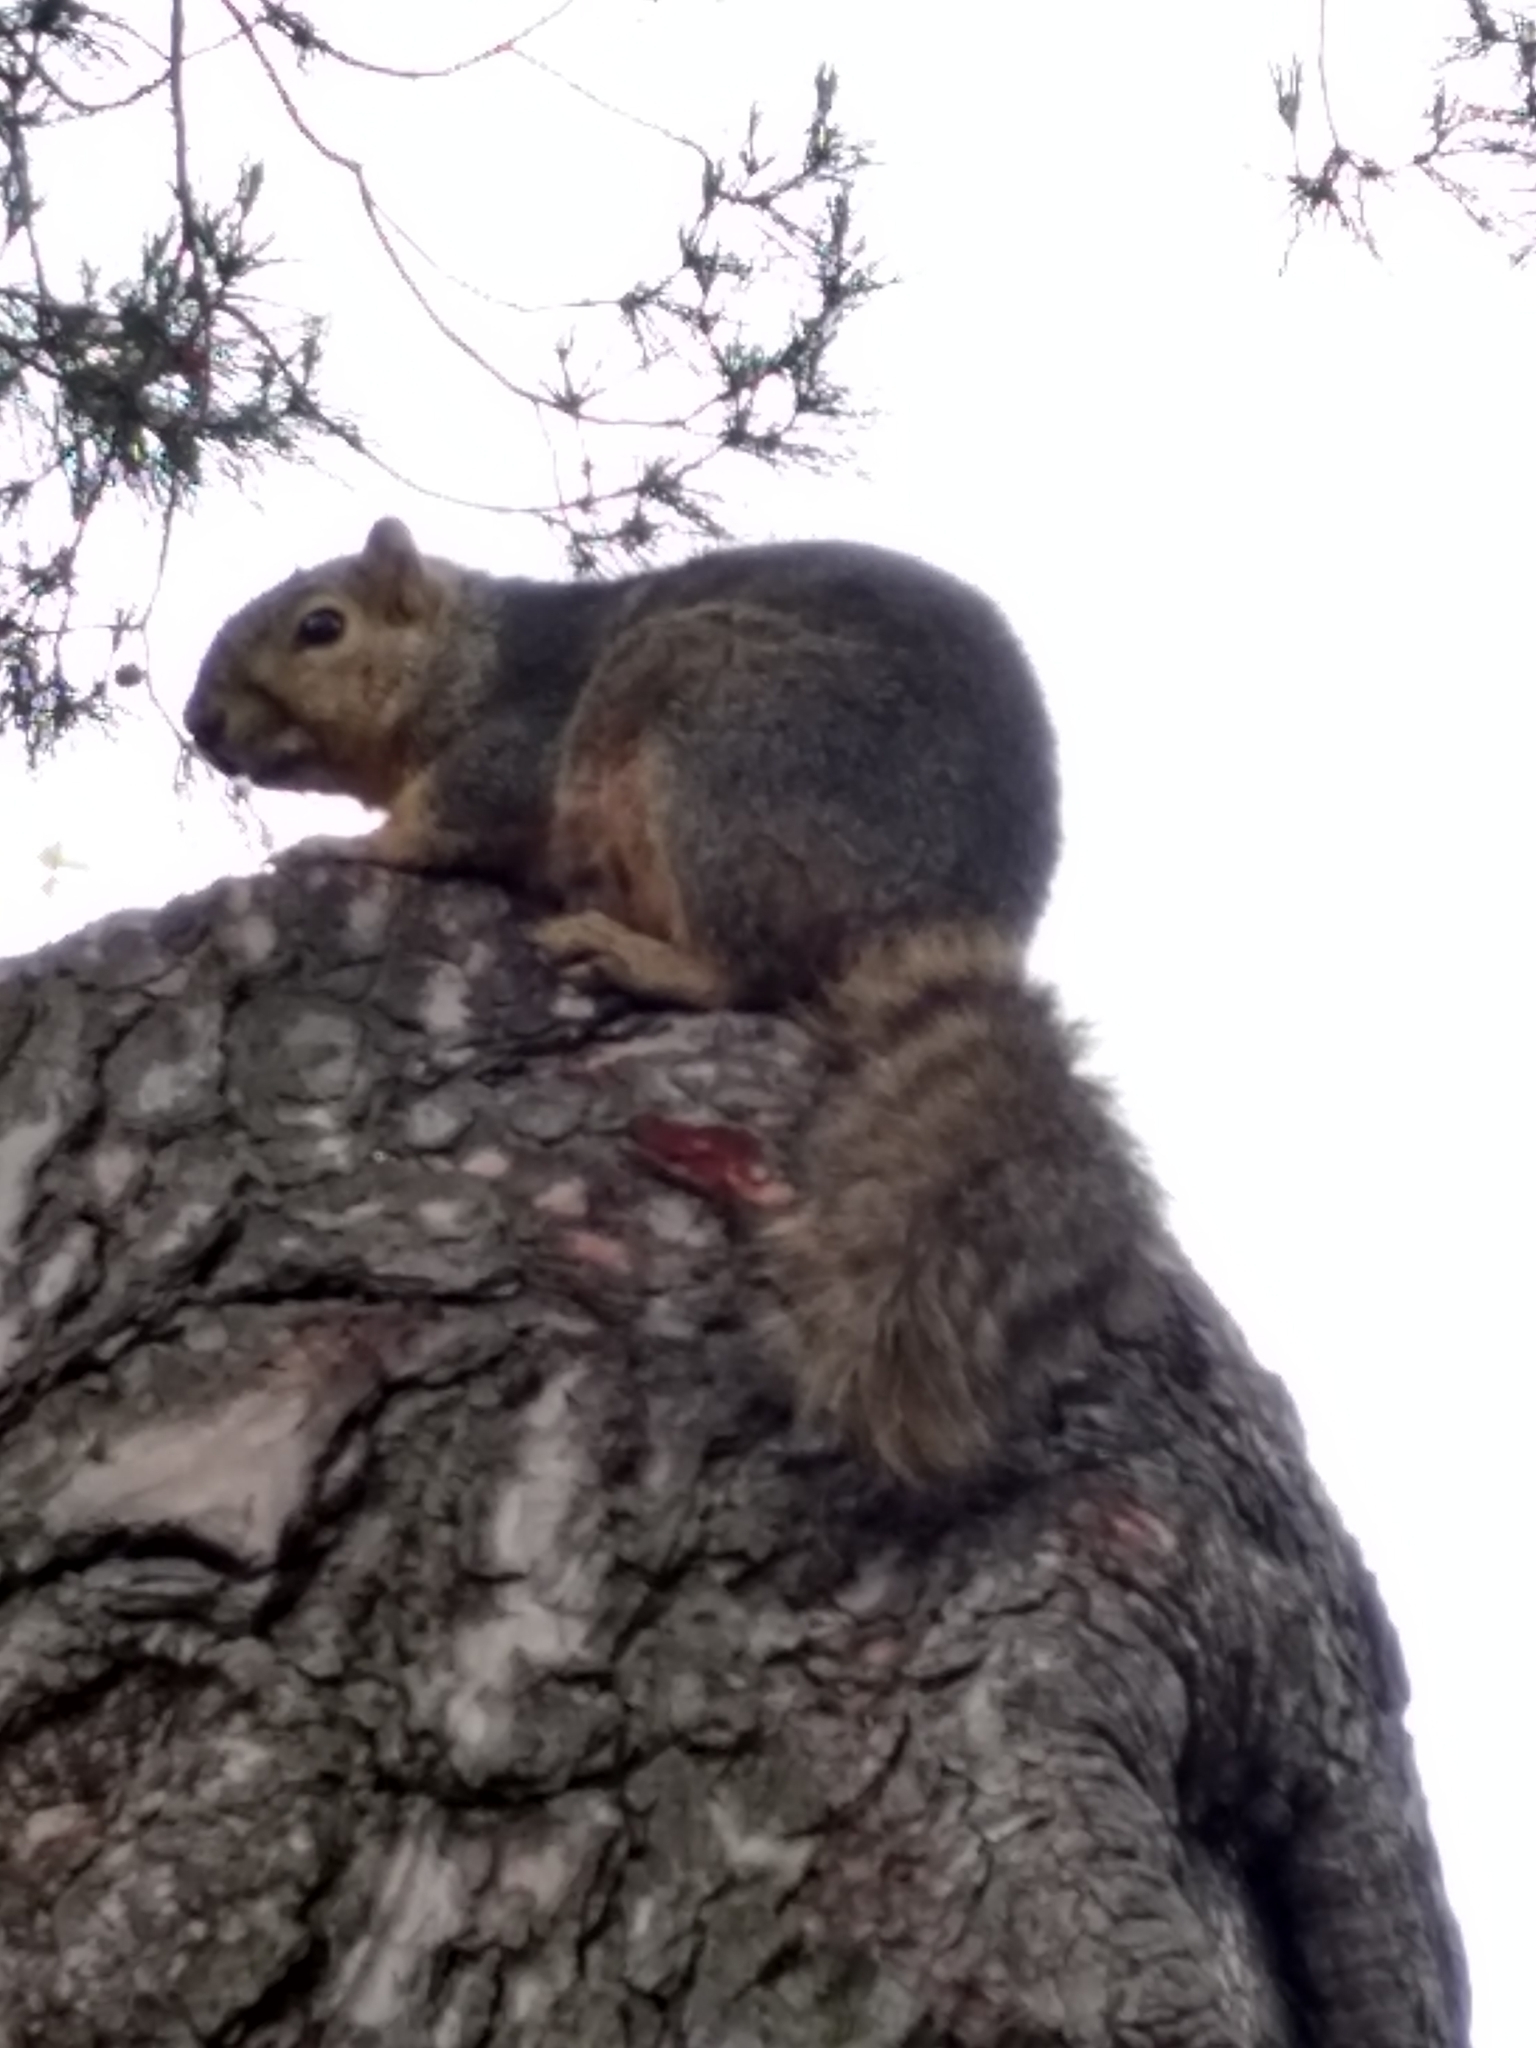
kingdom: Animalia
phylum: Chordata
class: Mammalia
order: Rodentia
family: Sciuridae
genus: Sciurus
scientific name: Sciurus niger
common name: Fox squirrel
